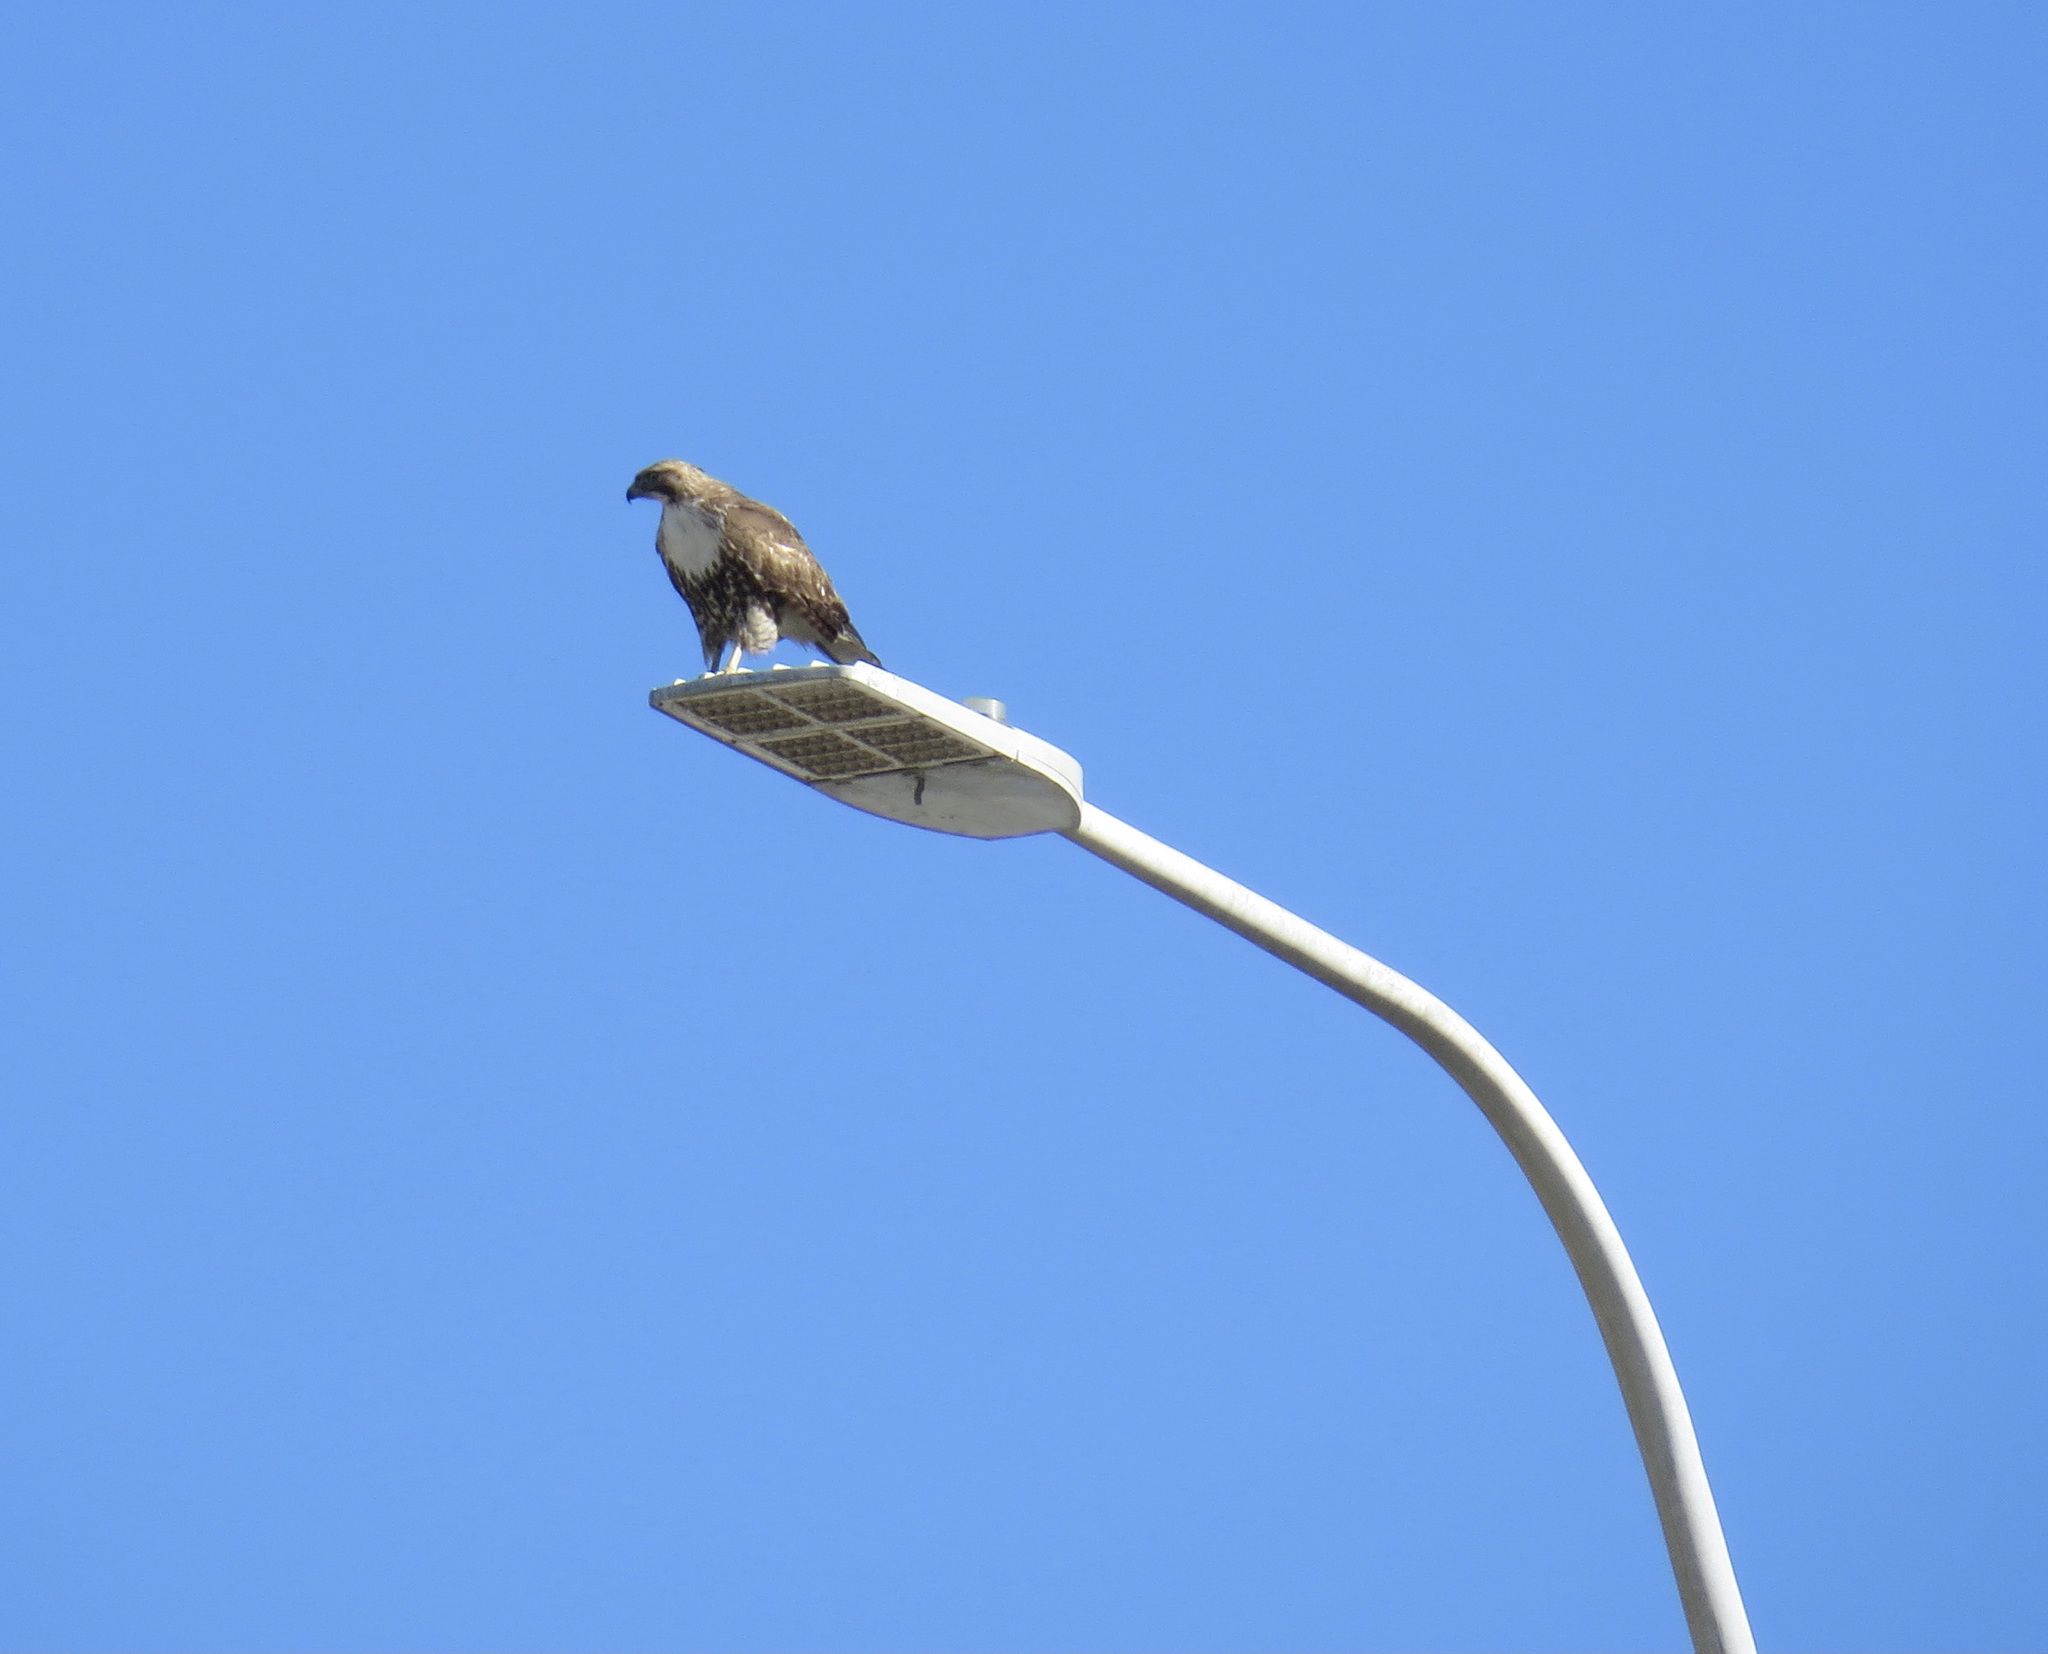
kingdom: Animalia
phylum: Chordata
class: Aves
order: Accipitriformes
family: Accipitridae
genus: Buteo
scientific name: Buteo jamaicensis
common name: Red-tailed hawk
